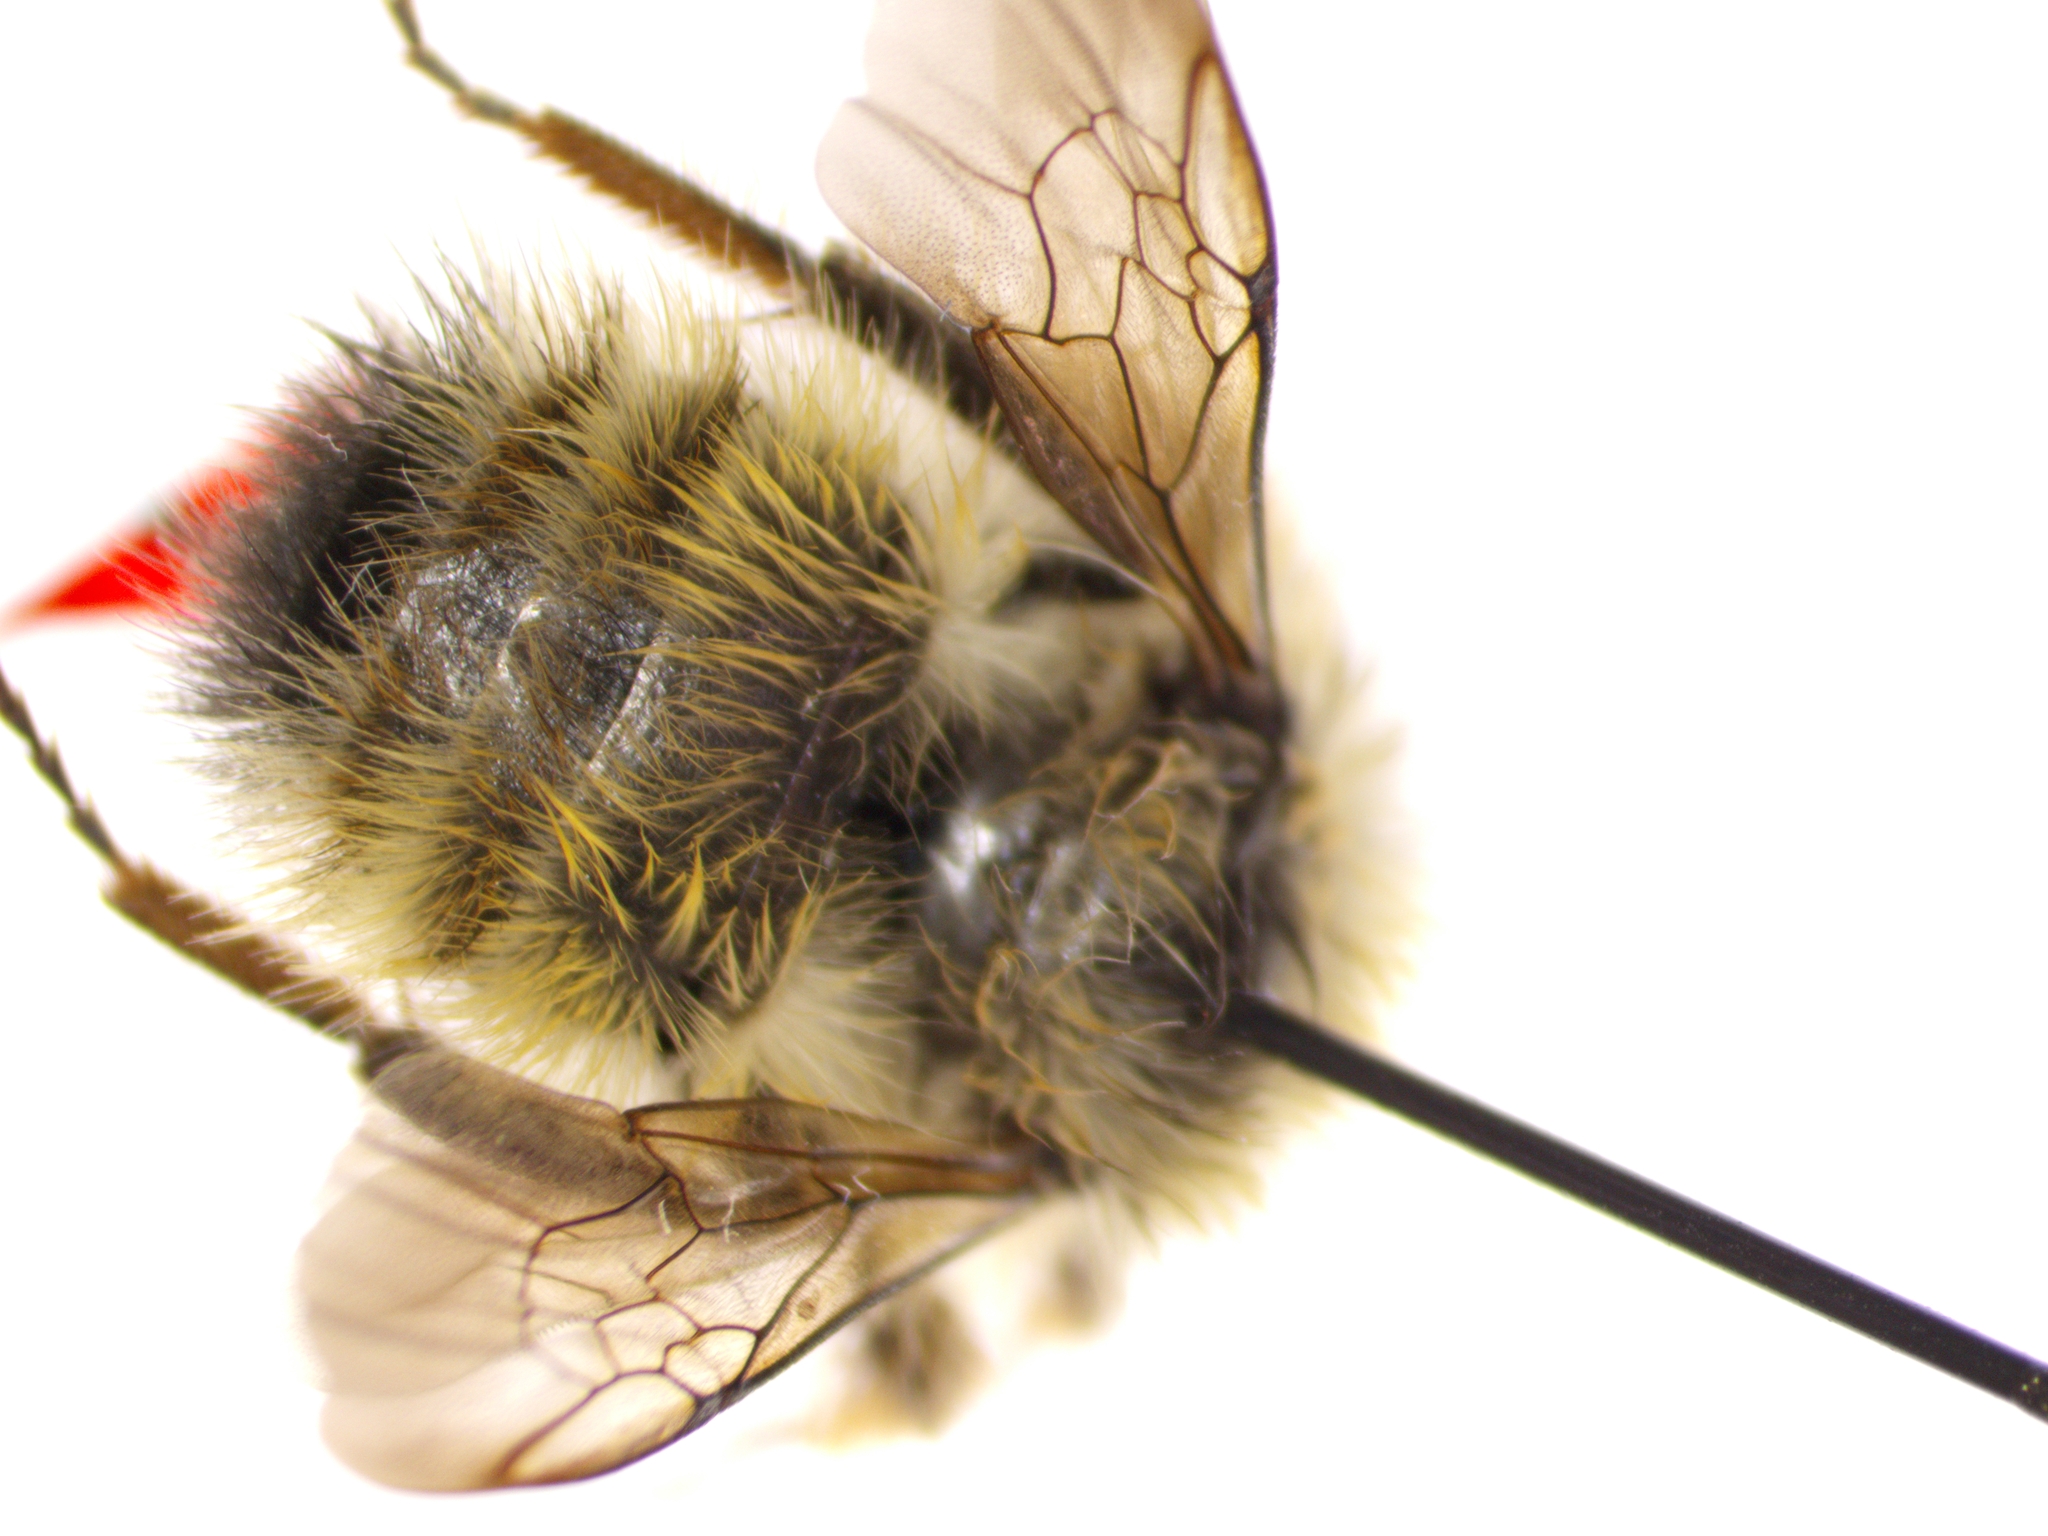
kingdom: Animalia
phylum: Arthropoda
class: Insecta
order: Hymenoptera
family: Apidae
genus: Bombus
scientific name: Bombus flavifrons
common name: Yellow head bumble bee
